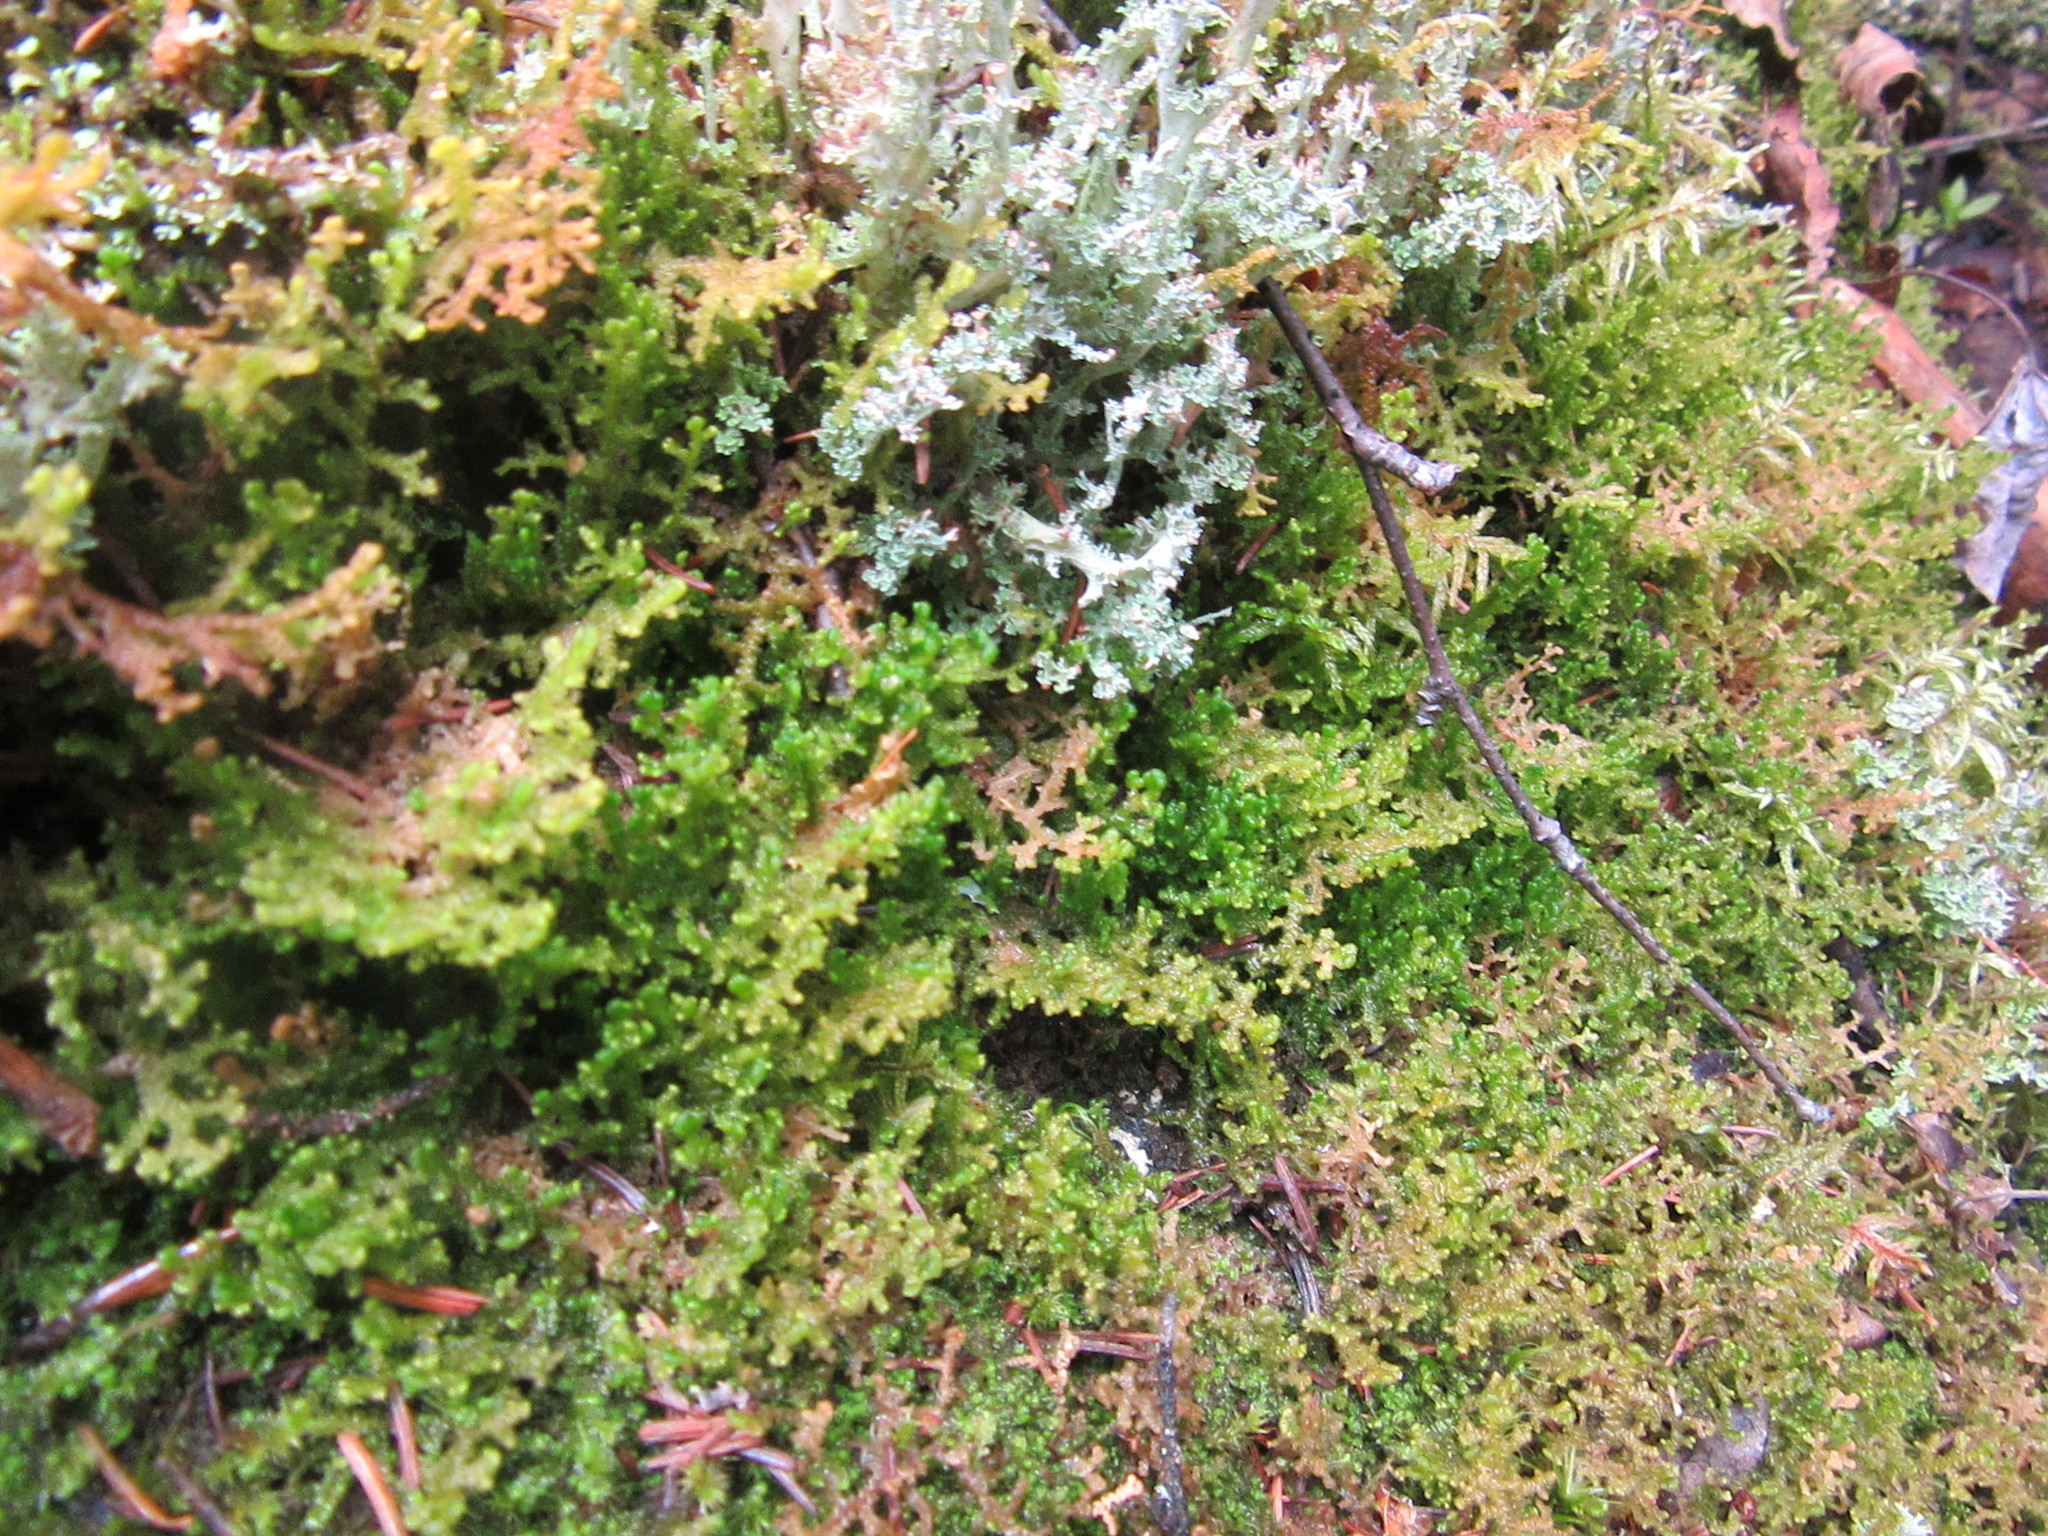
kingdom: Plantae
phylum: Marchantiophyta
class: Jungermanniopsida
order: Ptilidiales
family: Ptilidiaceae
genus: Ptilidium
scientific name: Ptilidium ciliare
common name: Ciliate fringewort
